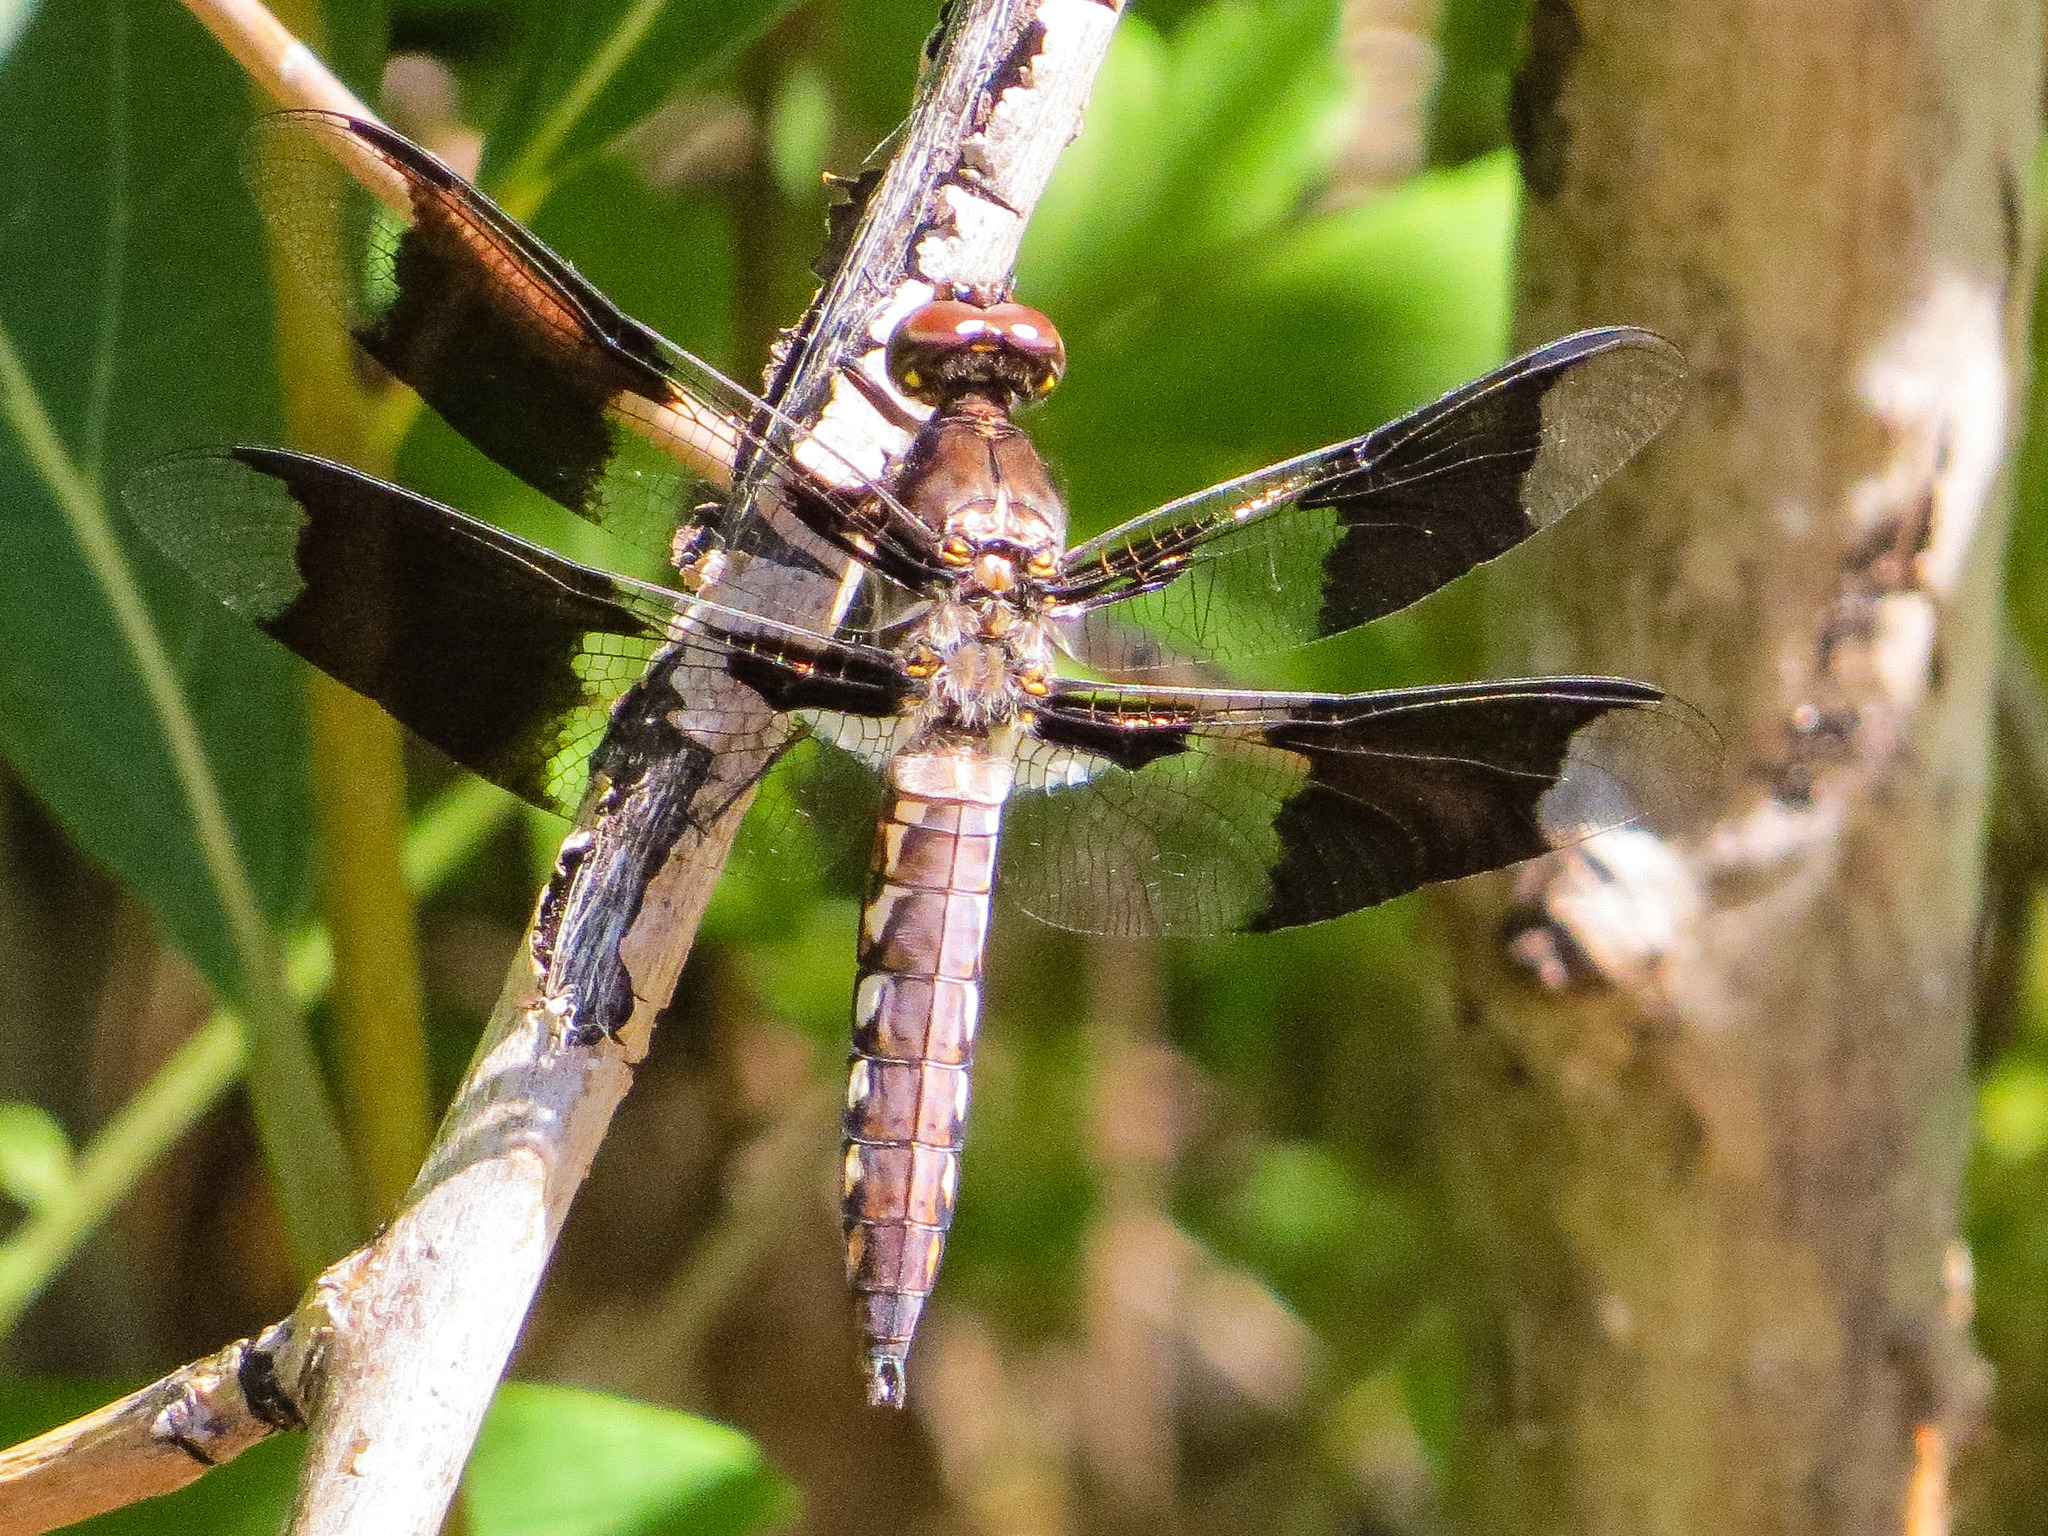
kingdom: Animalia
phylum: Arthropoda
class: Insecta
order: Odonata
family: Libellulidae
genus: Plathemis
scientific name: Plathemis lydia
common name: Common whitetail
